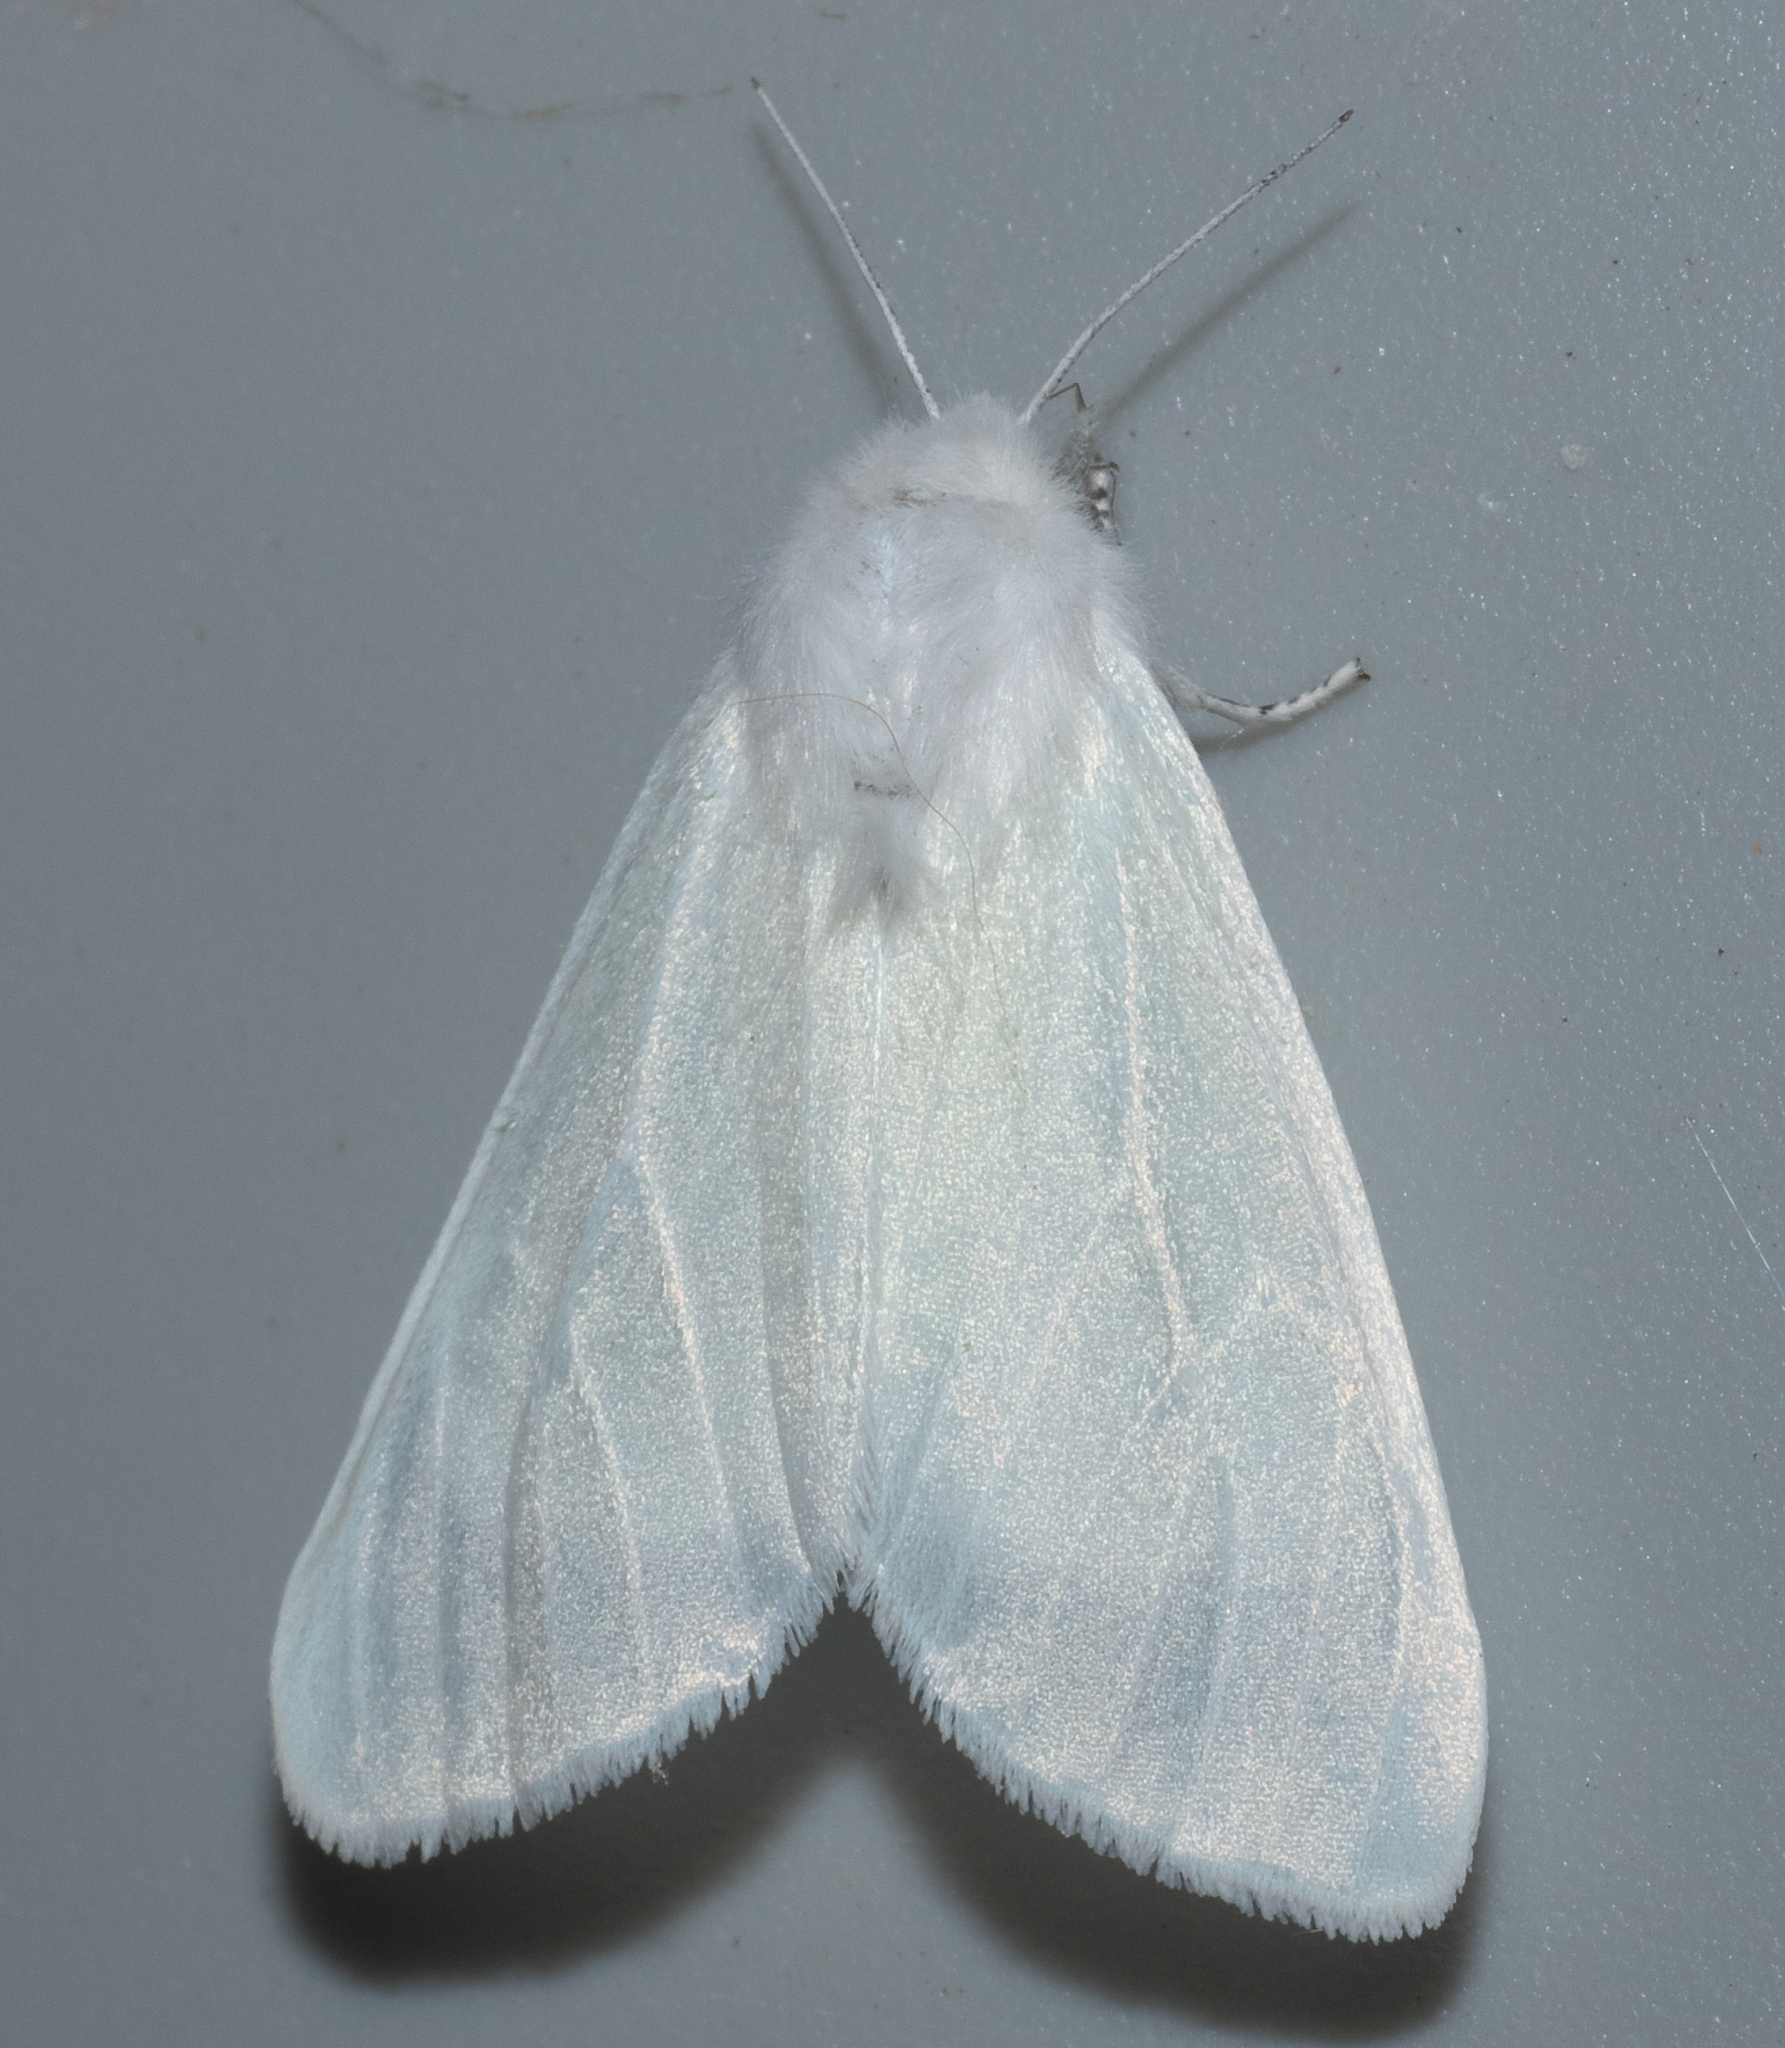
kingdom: Animalia
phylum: Arthropoda
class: Insecta
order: Lepidoptera
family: Erebidae
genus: Hyphantria
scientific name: Hyphantria cunea
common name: American white moth
